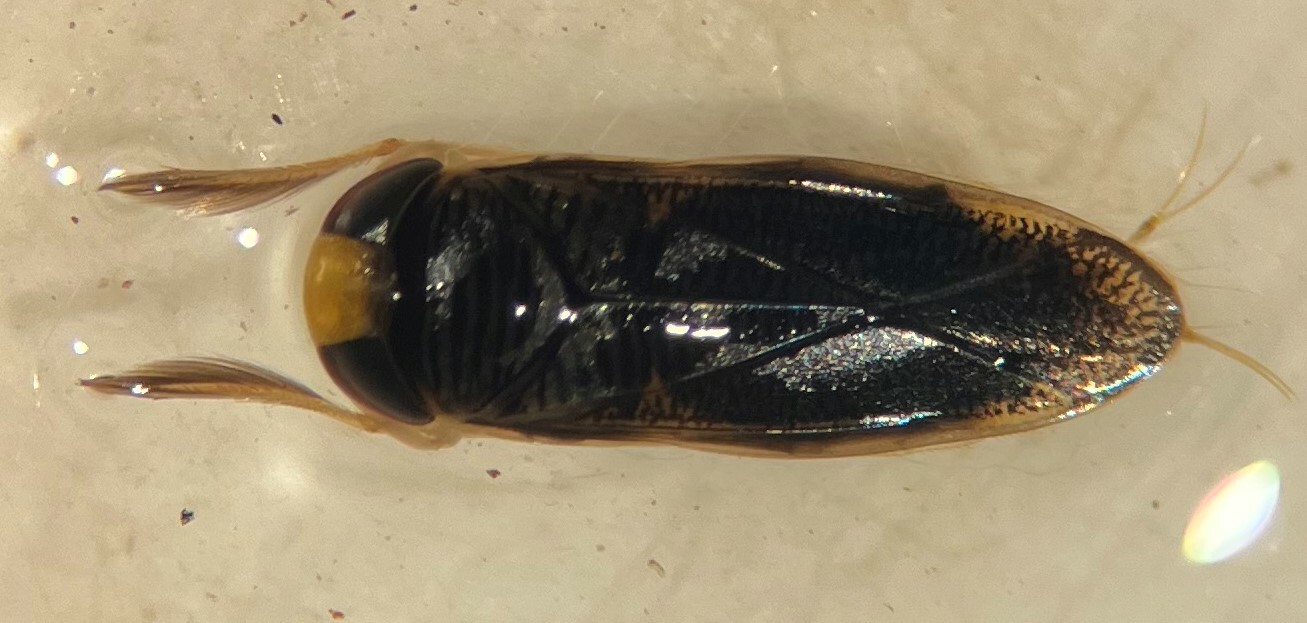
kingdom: Animalia
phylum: Arthropoda
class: Insecta
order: Hemiptera
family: Corixidae
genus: Sigara
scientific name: Sigara alternata
